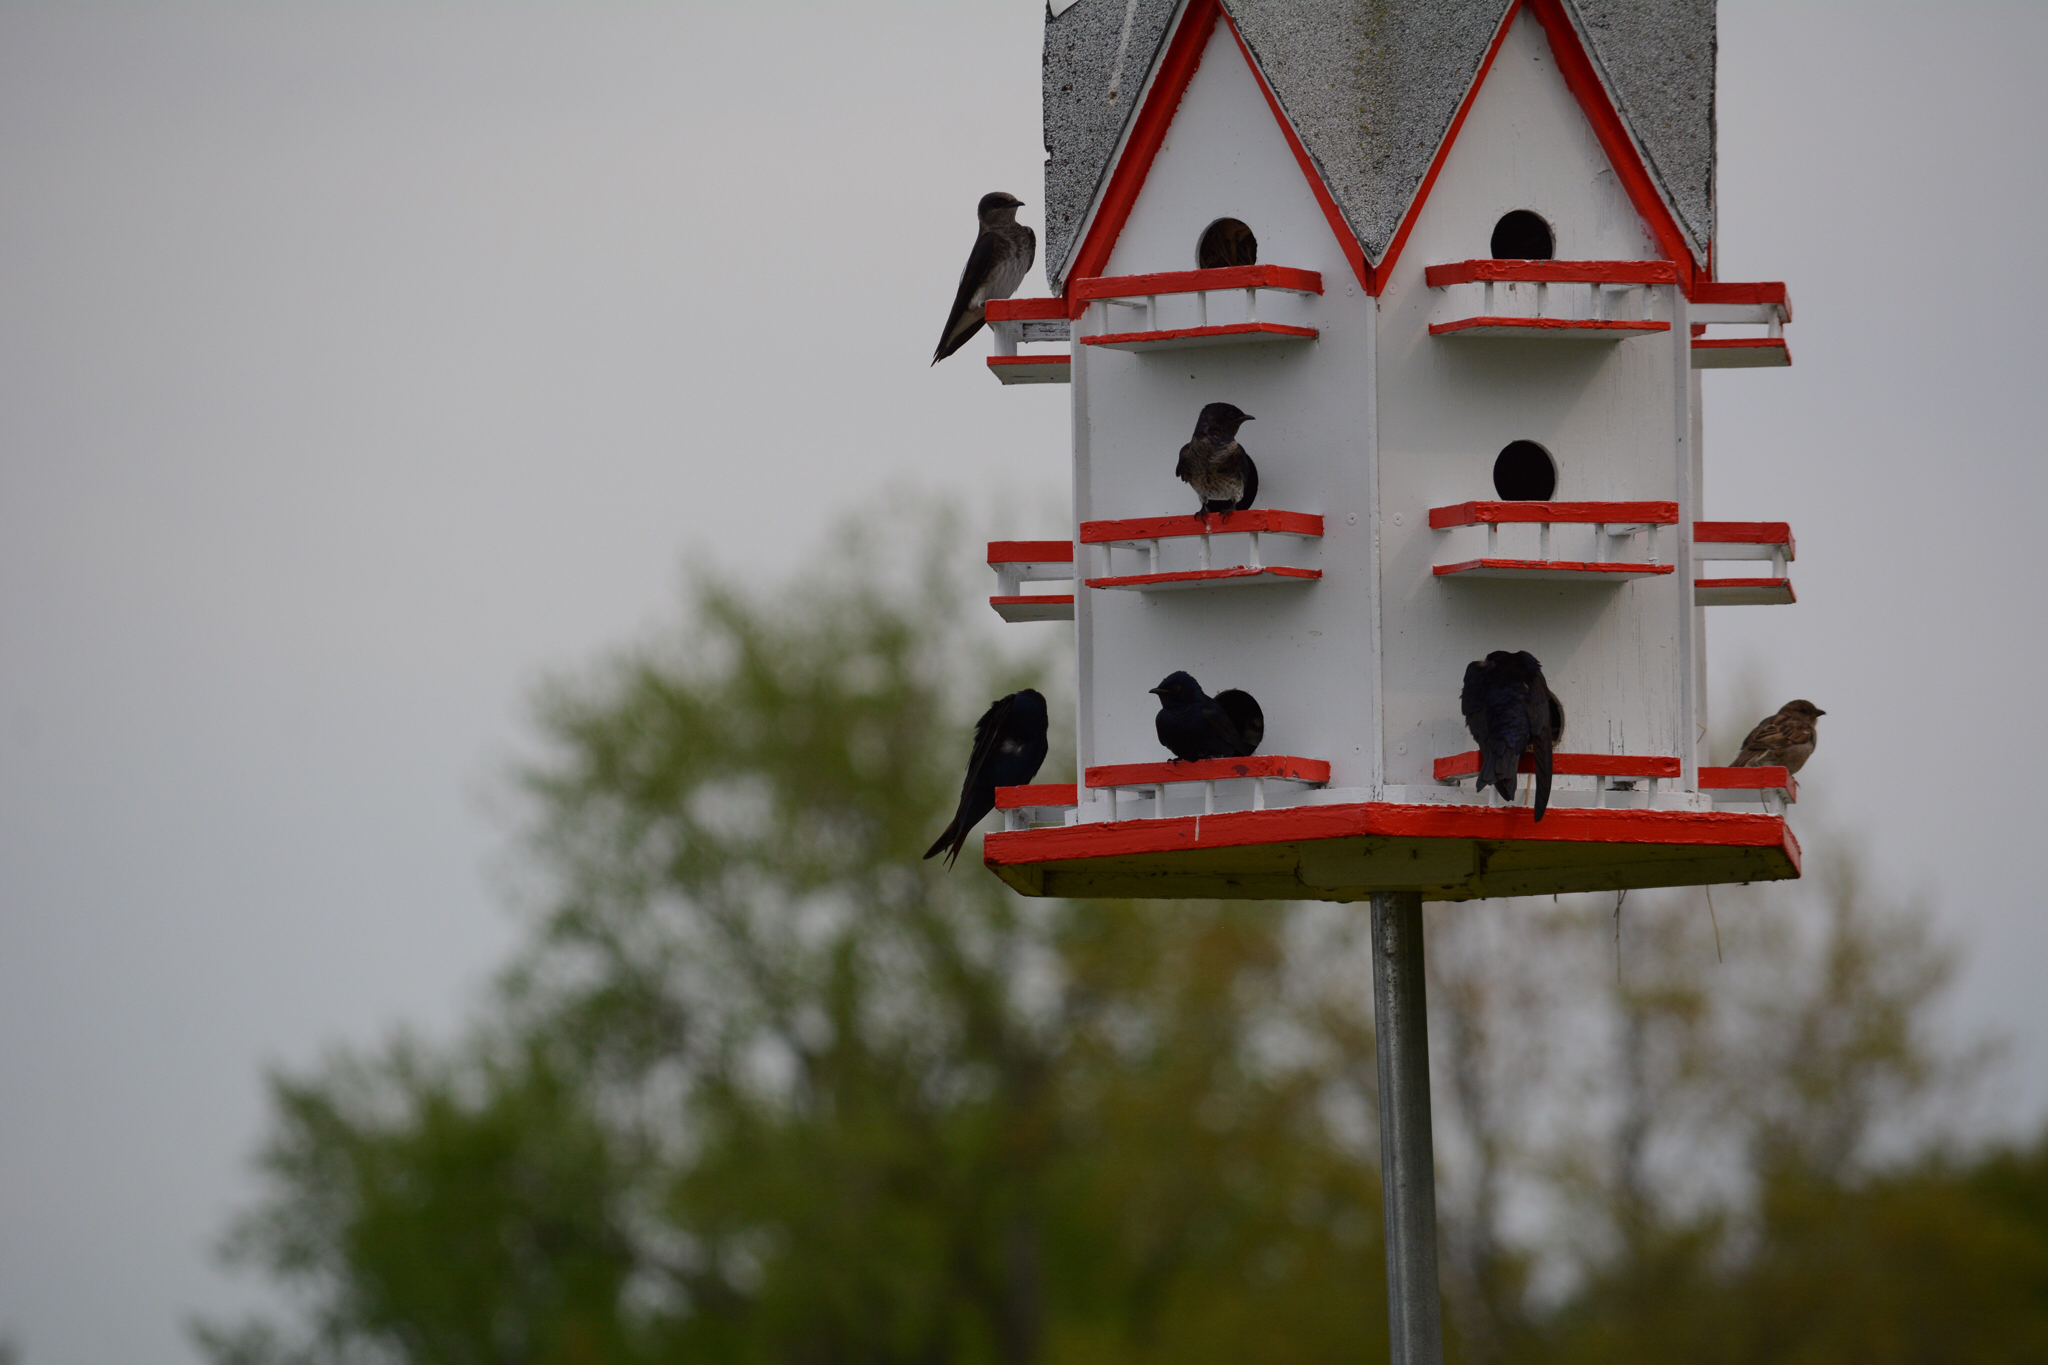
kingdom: Animalia
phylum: Chordata
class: Aves
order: Passeriformes
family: Hirundinidae
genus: Progne
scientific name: Progne subis
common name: Purple martin
